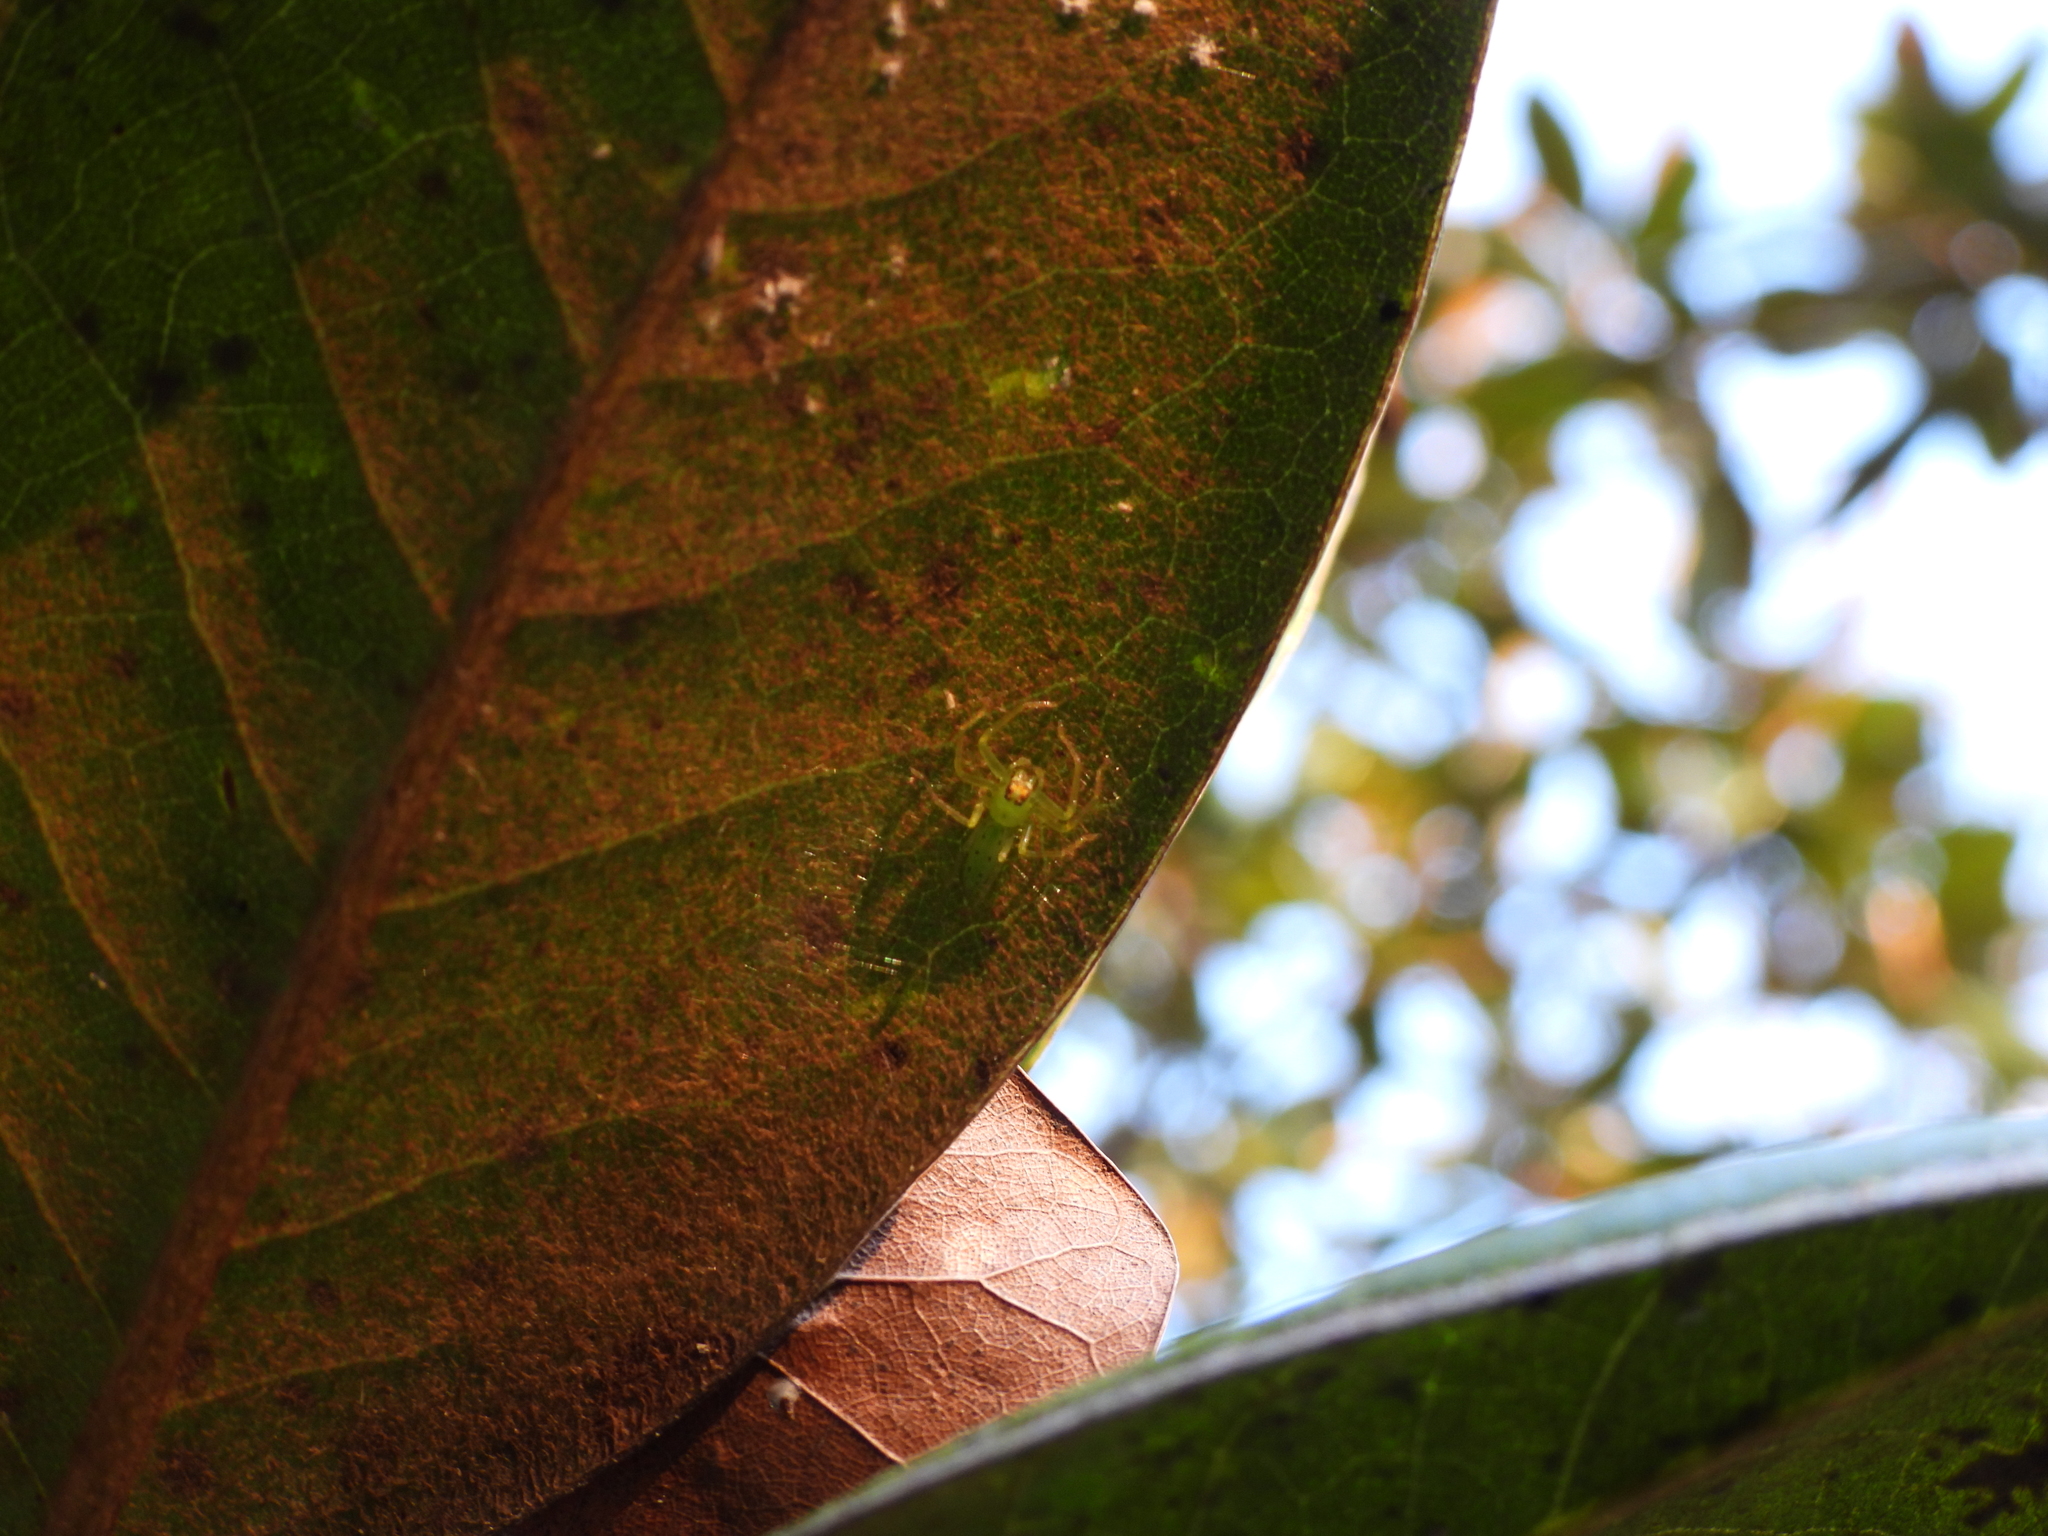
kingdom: Animalia
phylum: Arthropoda
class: Arachnida
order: Araneae
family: Salticidae
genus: Lyssomanes
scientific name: Lyssomanes viridis
